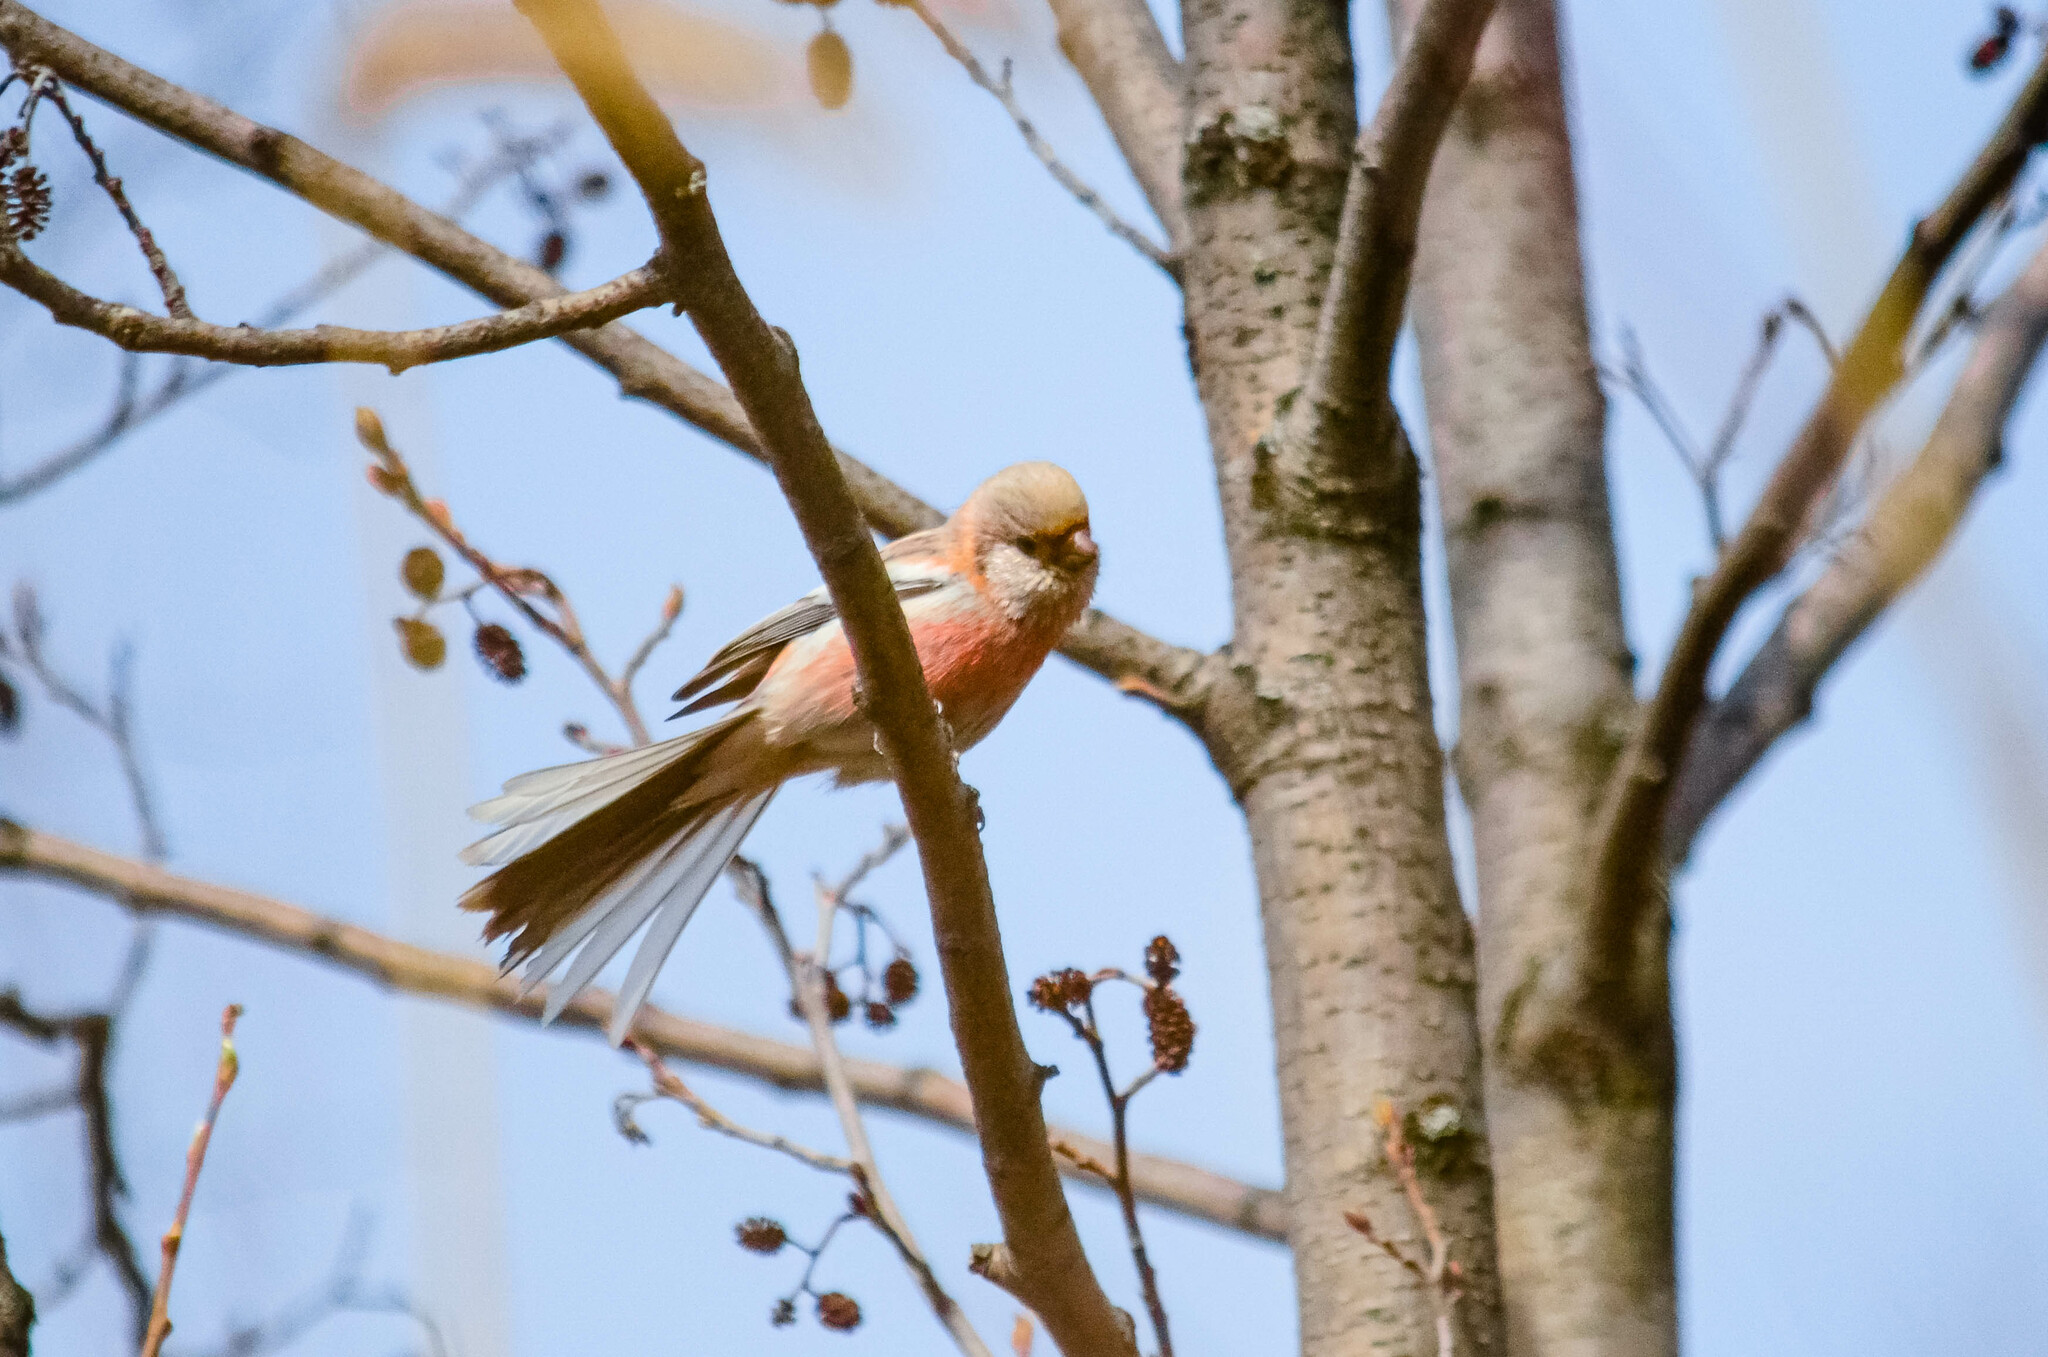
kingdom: Animalia
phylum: Chordata
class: Aves
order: Passeriformes
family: Fringillidae
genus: Carpodacus
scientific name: Carpodacus sibiricus
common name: Long-tailed rosefinch
